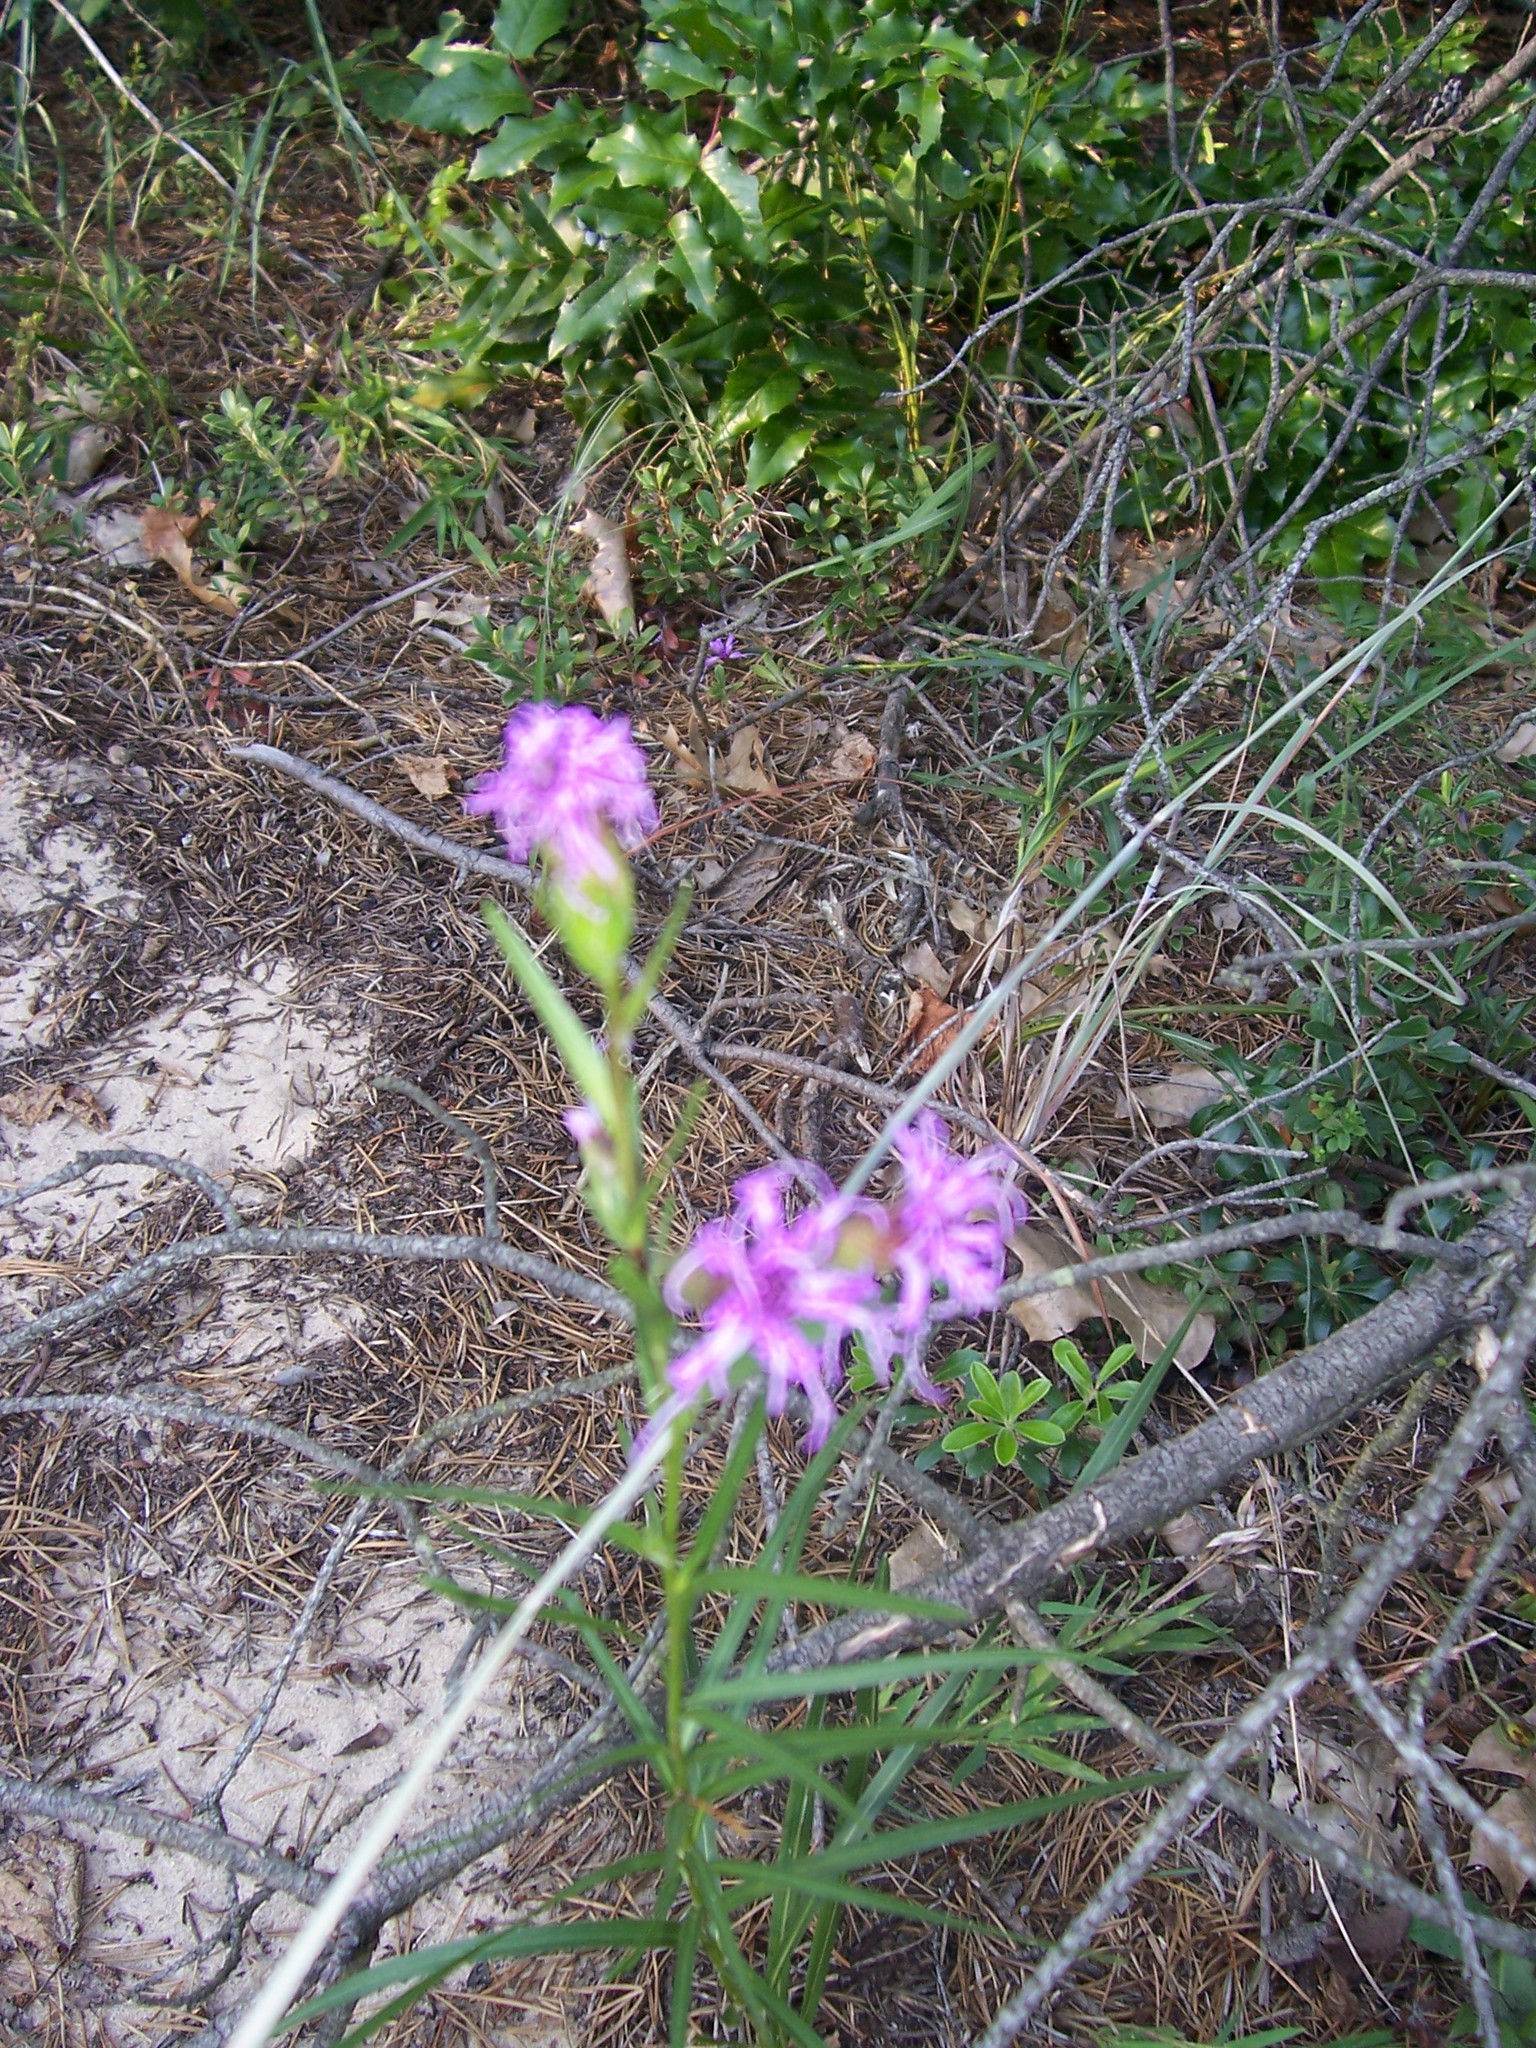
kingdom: Plantae
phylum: Tracheophyta
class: Magnoliopsida
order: Asterales
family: Asteraceae
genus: Liatris
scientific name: Liatris cylindracea
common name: Few-head blazingstar
